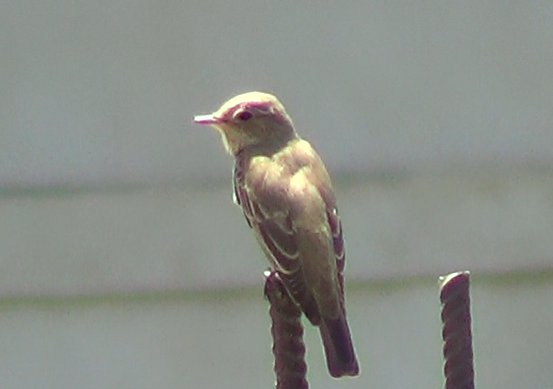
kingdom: Animalia
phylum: Chordata
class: Aves
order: Passeriformes
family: Muscicapidae
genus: Muscicapa
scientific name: Muscicapa striata
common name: Spotted flycatcher
